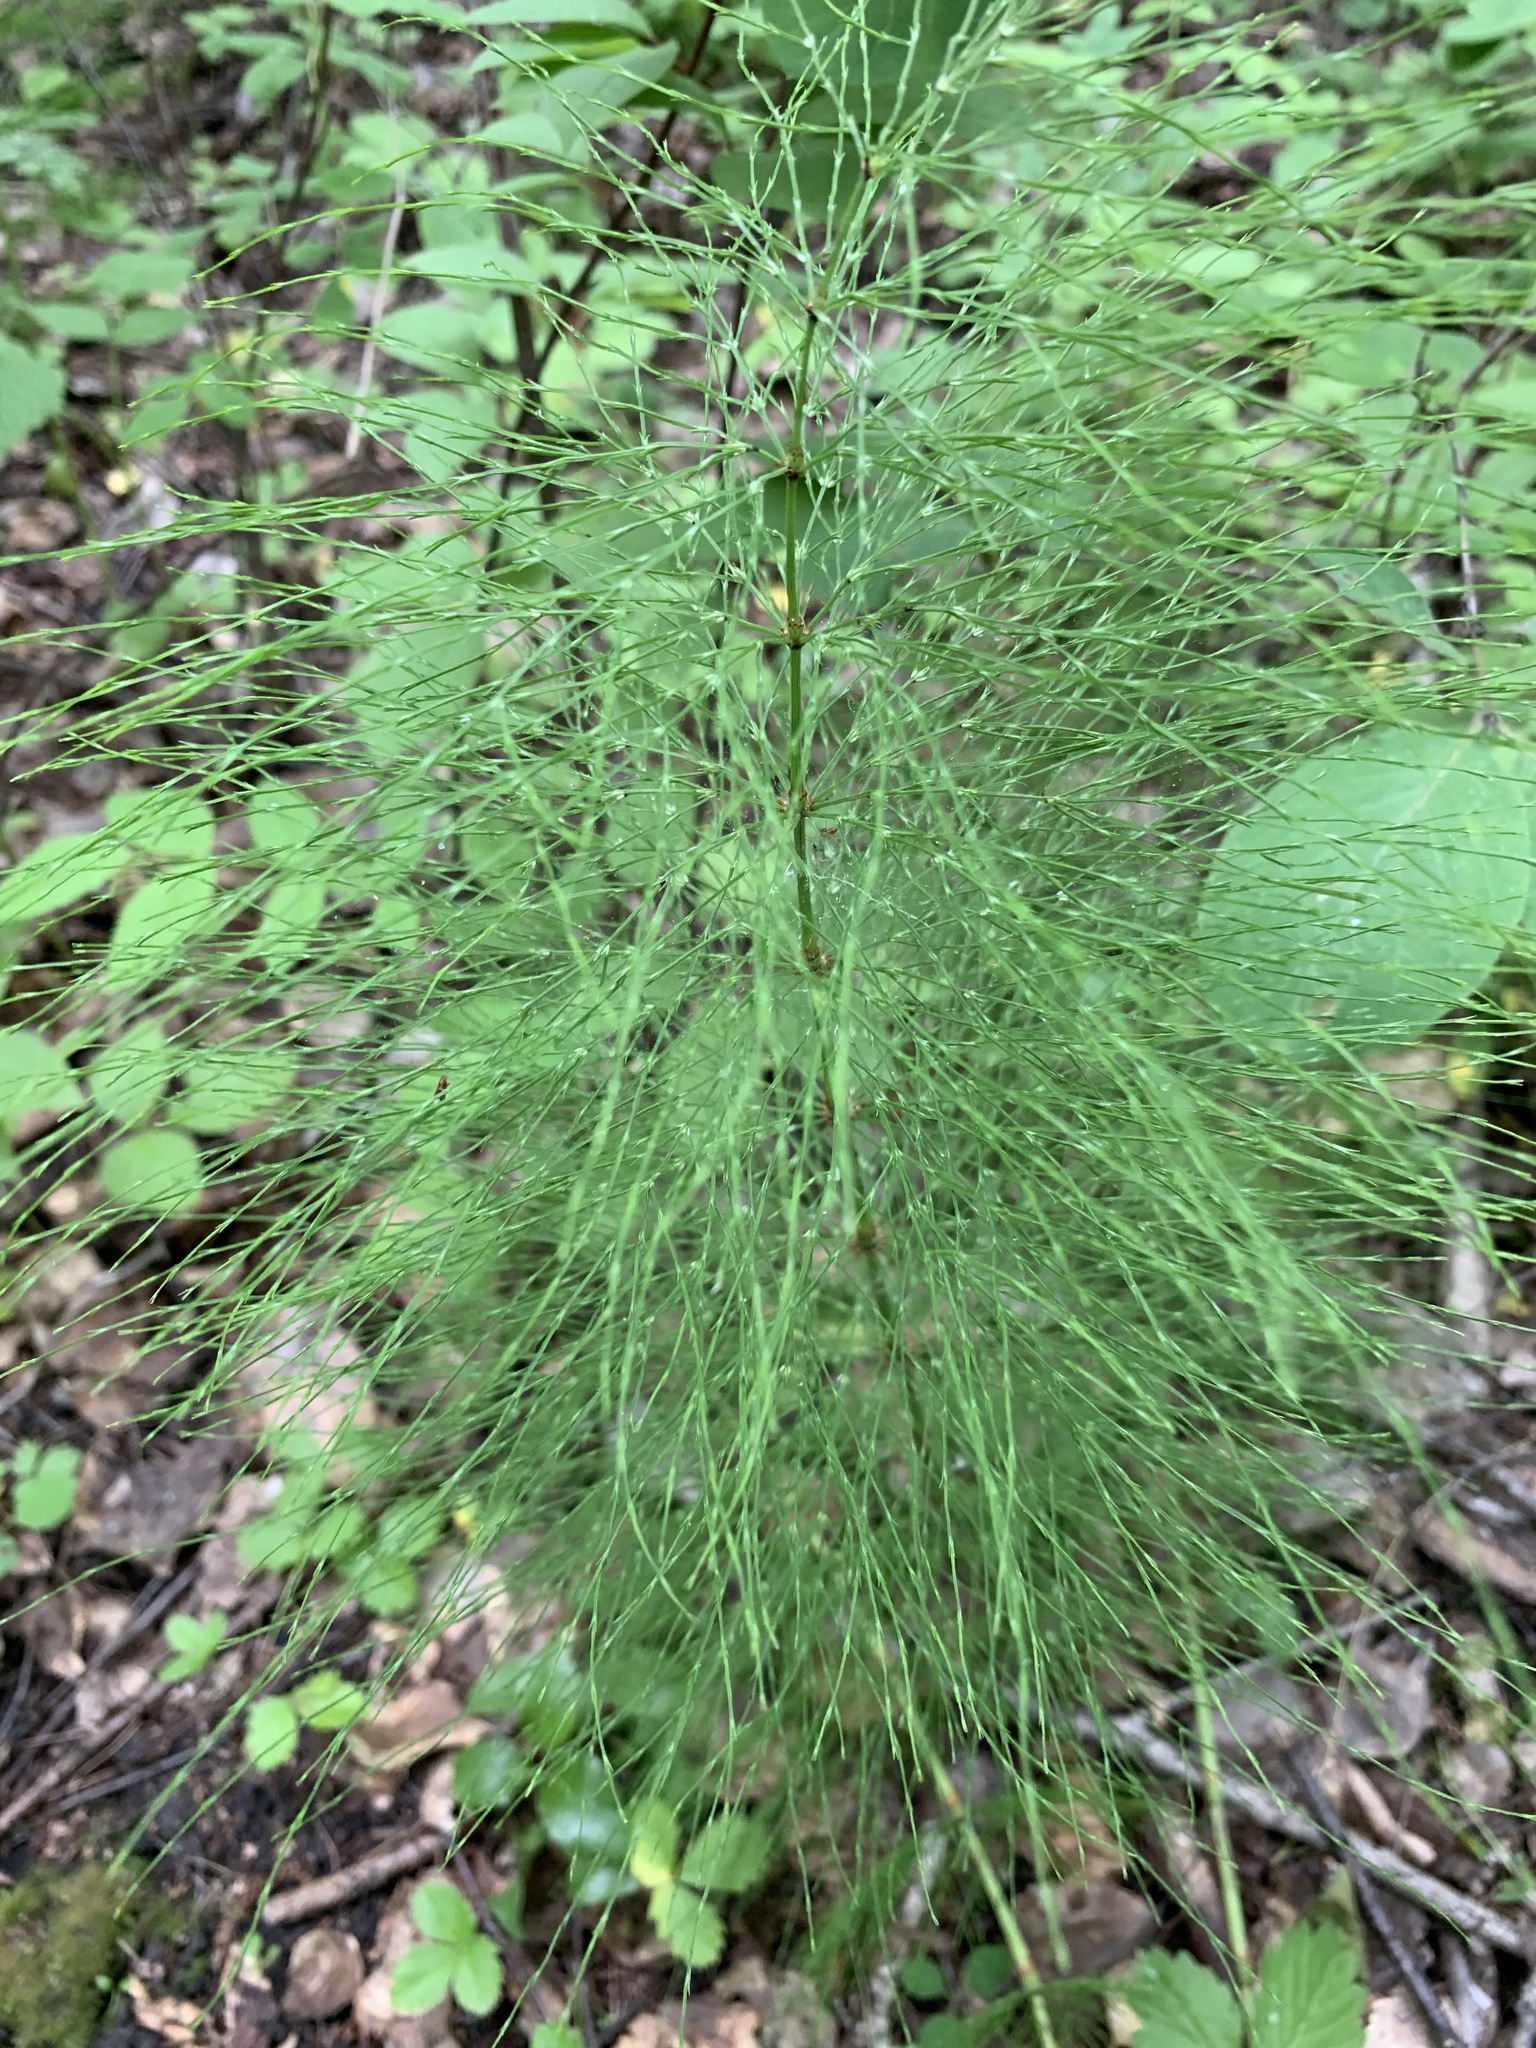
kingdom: Plantae
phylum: Tracheophyta
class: Polypodiopsida
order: Equisetales
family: Equisetaceae
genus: Equisetum
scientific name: Equisetum sylvaticum
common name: Wood horsetail
